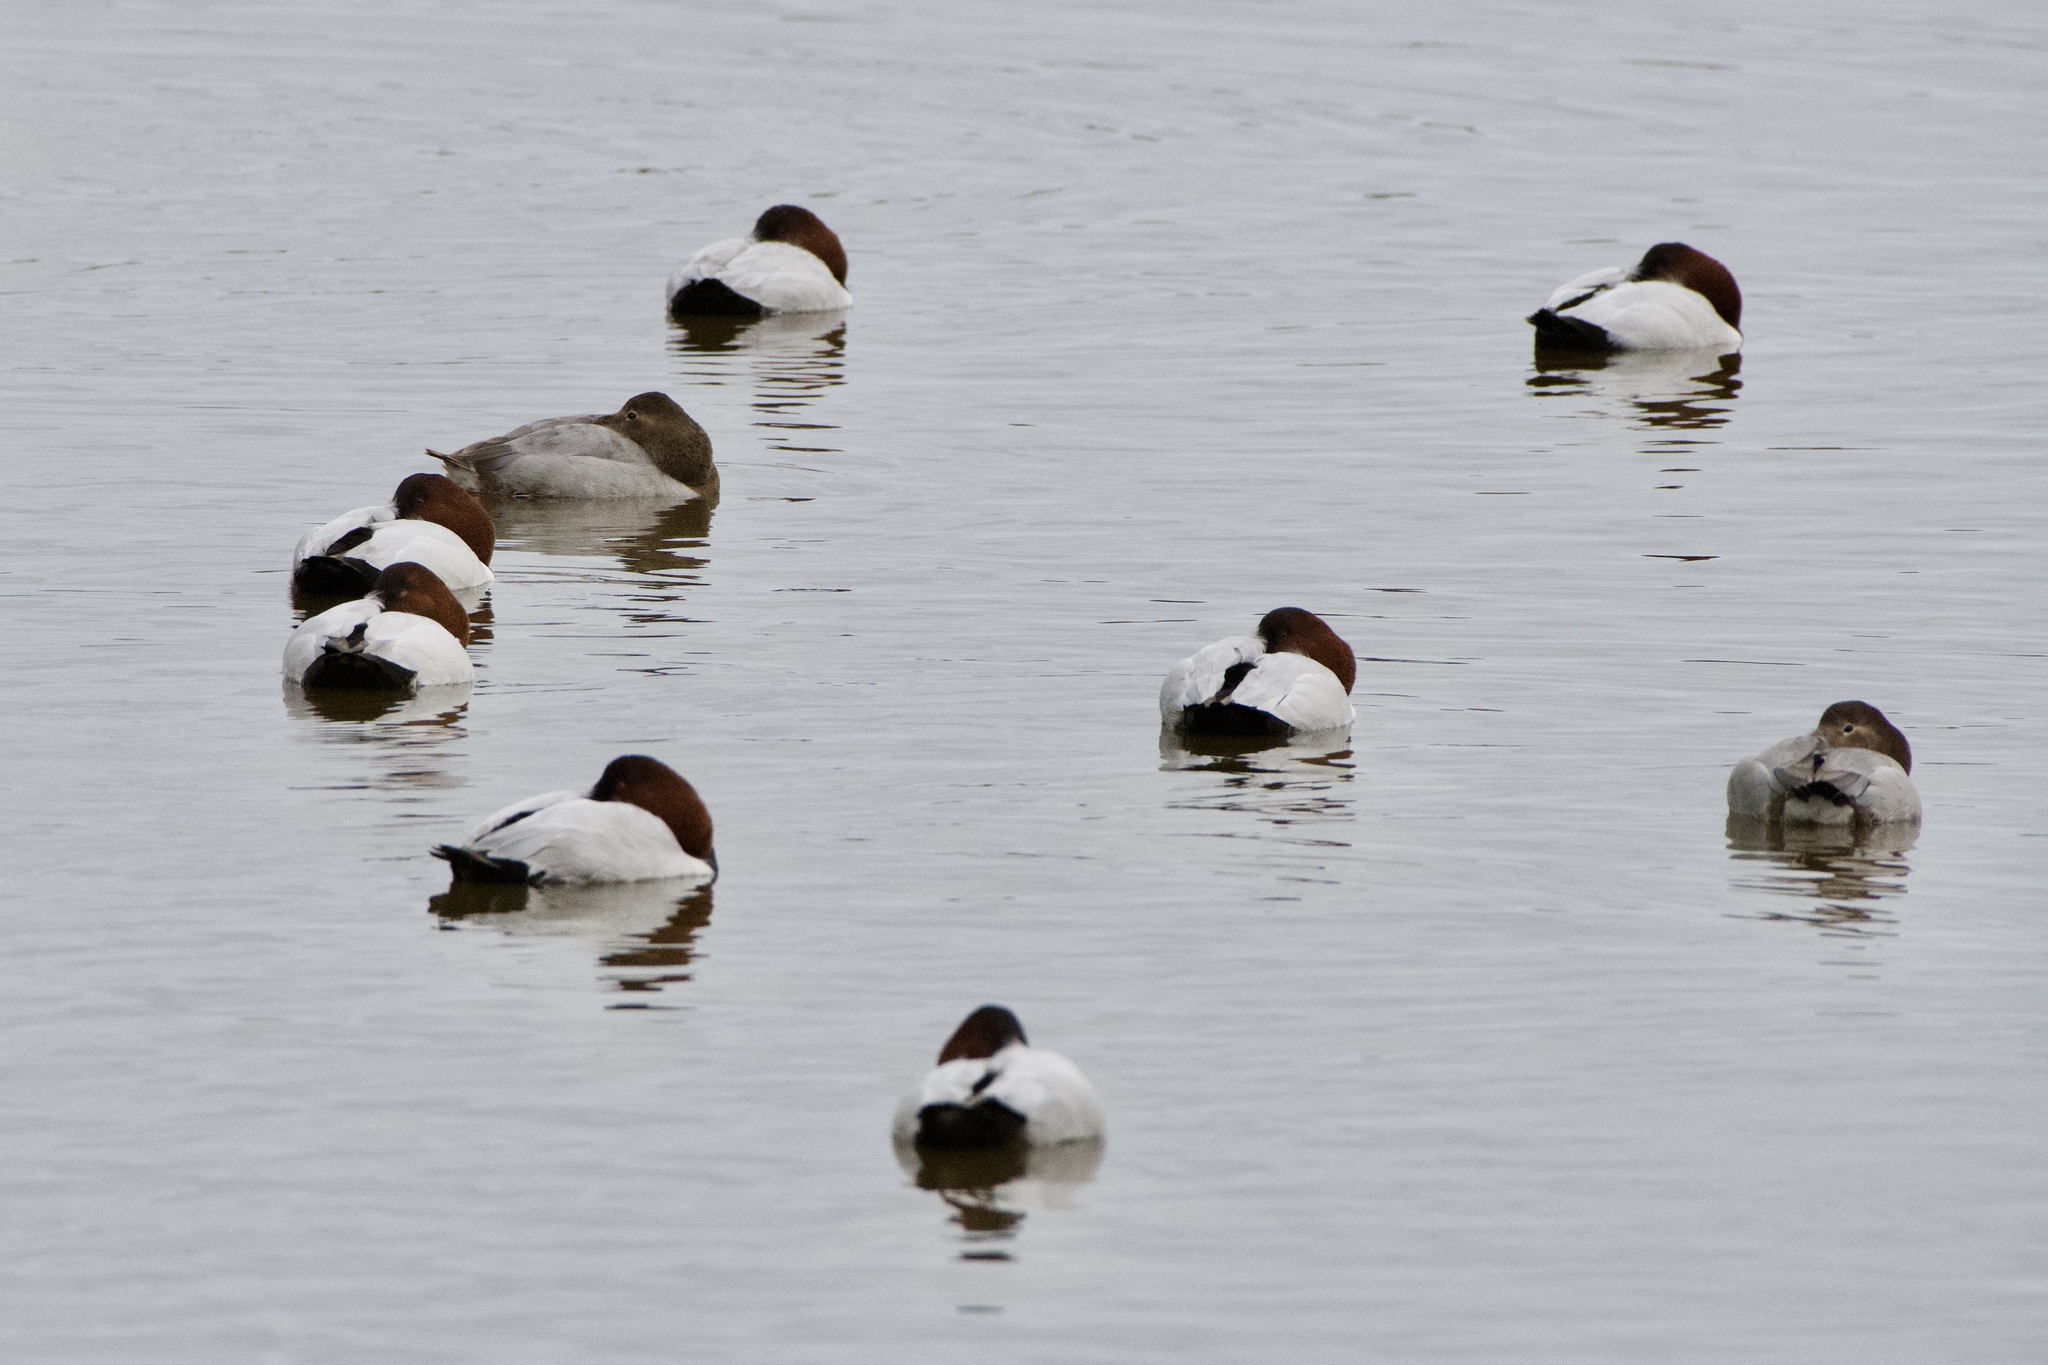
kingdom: Animalia
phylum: Chordata
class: Aves
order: Anseriformes
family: Anatidae
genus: Aythya
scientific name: Aythya valisineria
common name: Canvasback
